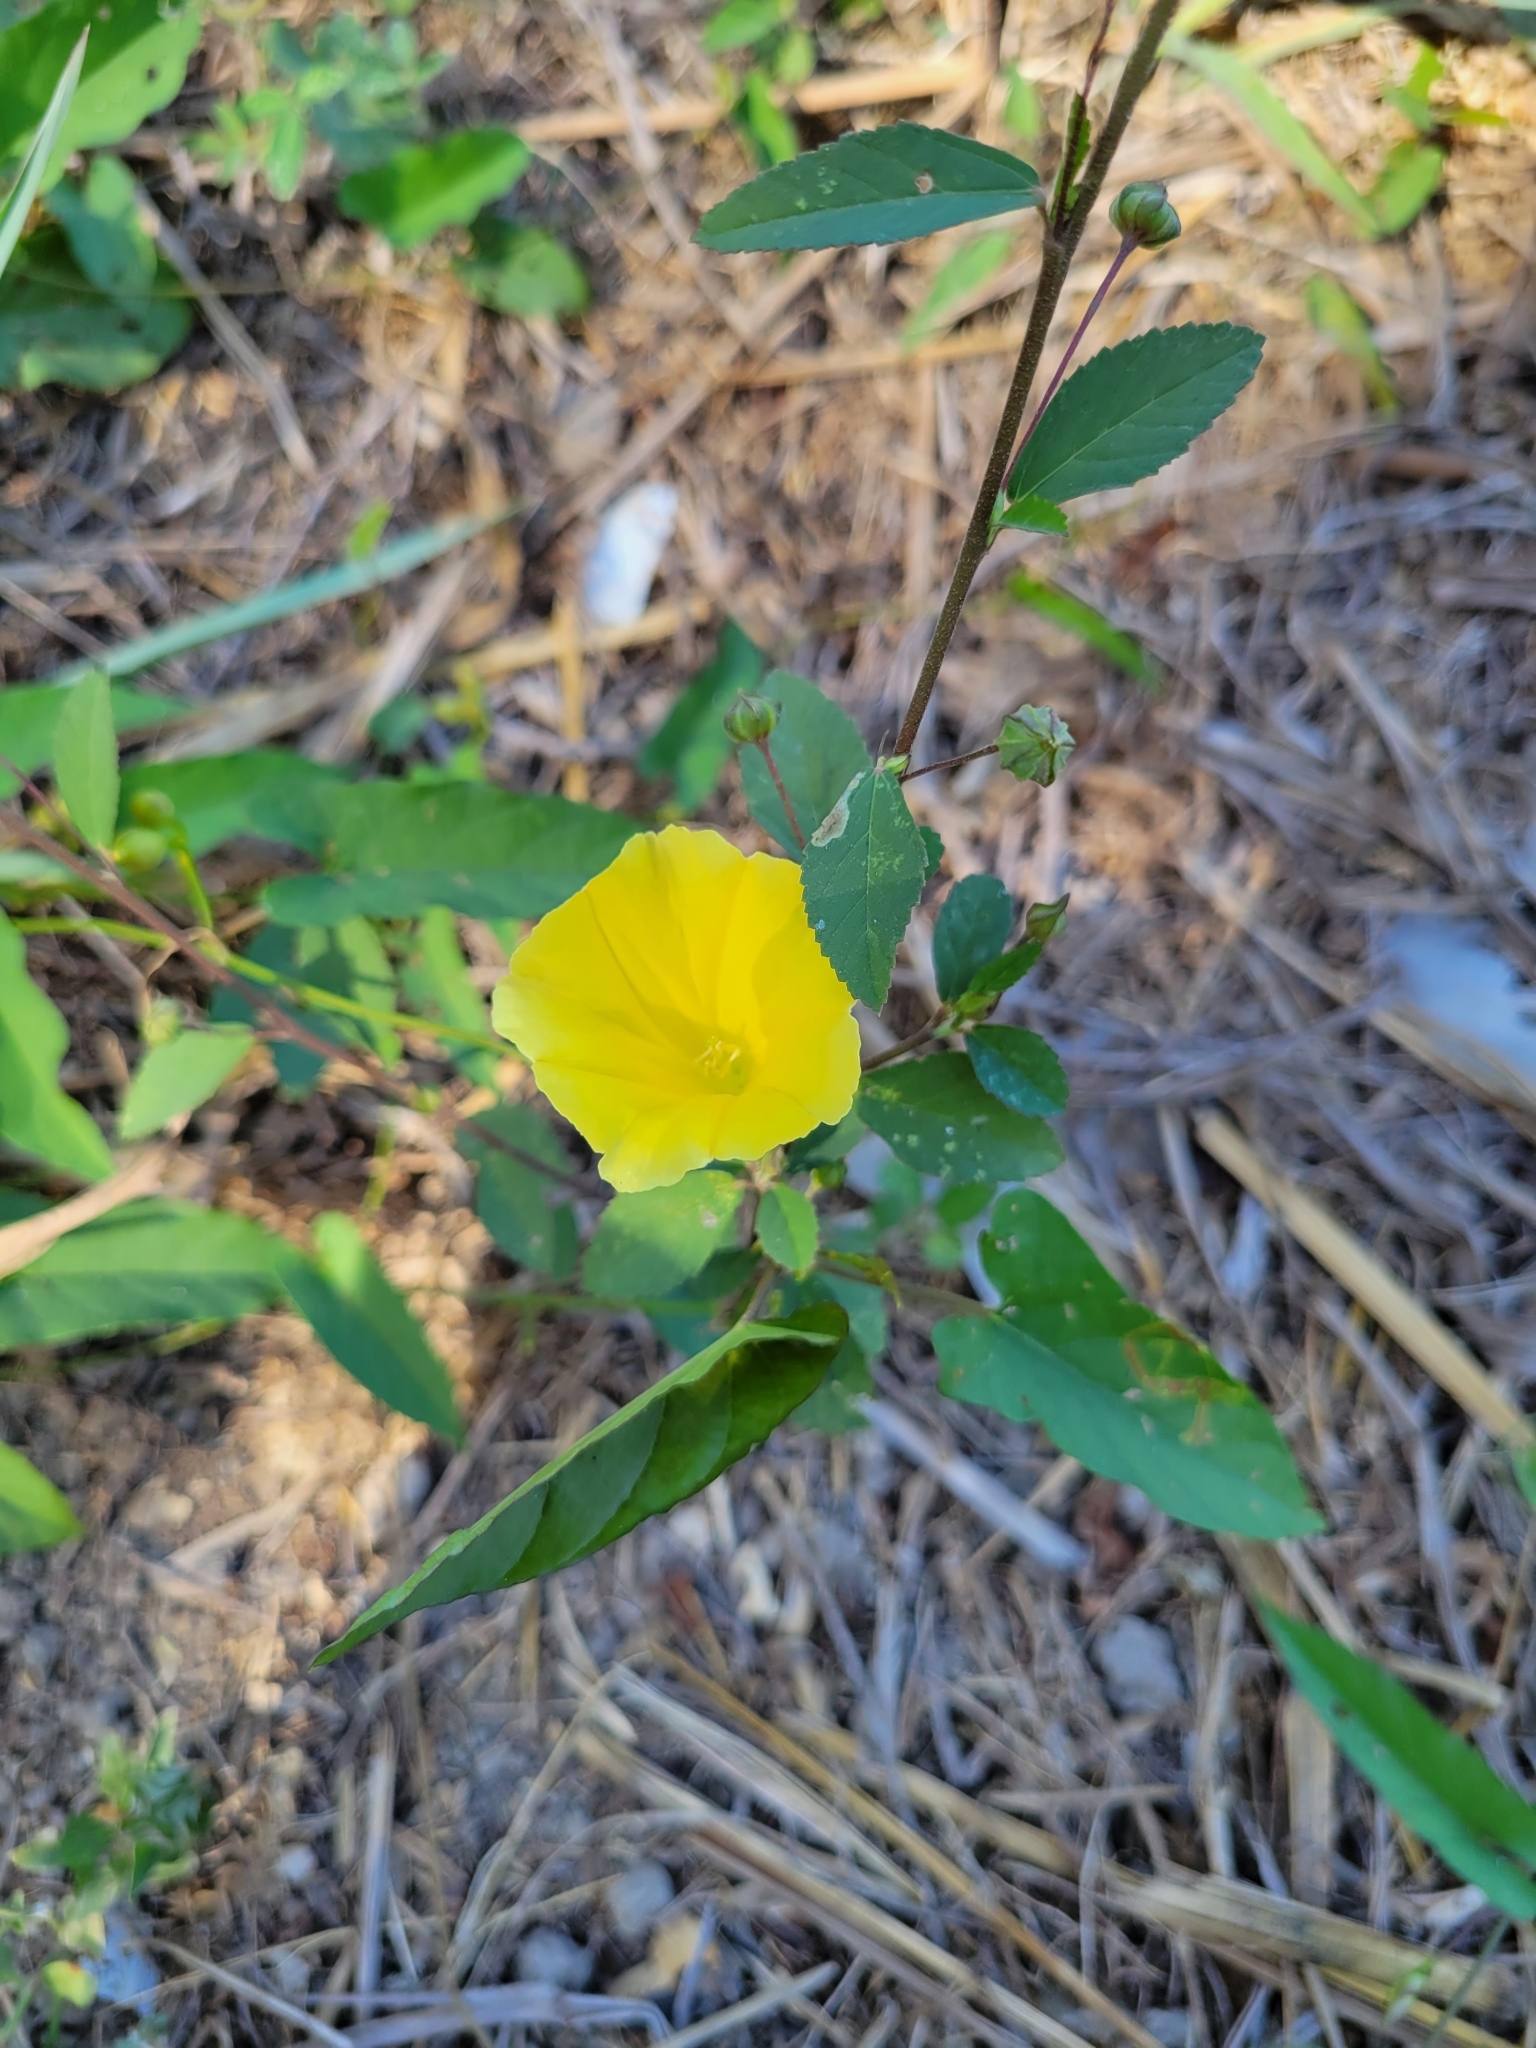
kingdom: Plantae
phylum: Tracheophyta
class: Magnoliopsida
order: Solanales
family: Convolvulaceae
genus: Camonea
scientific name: Camonea umbellata
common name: Hogvine
